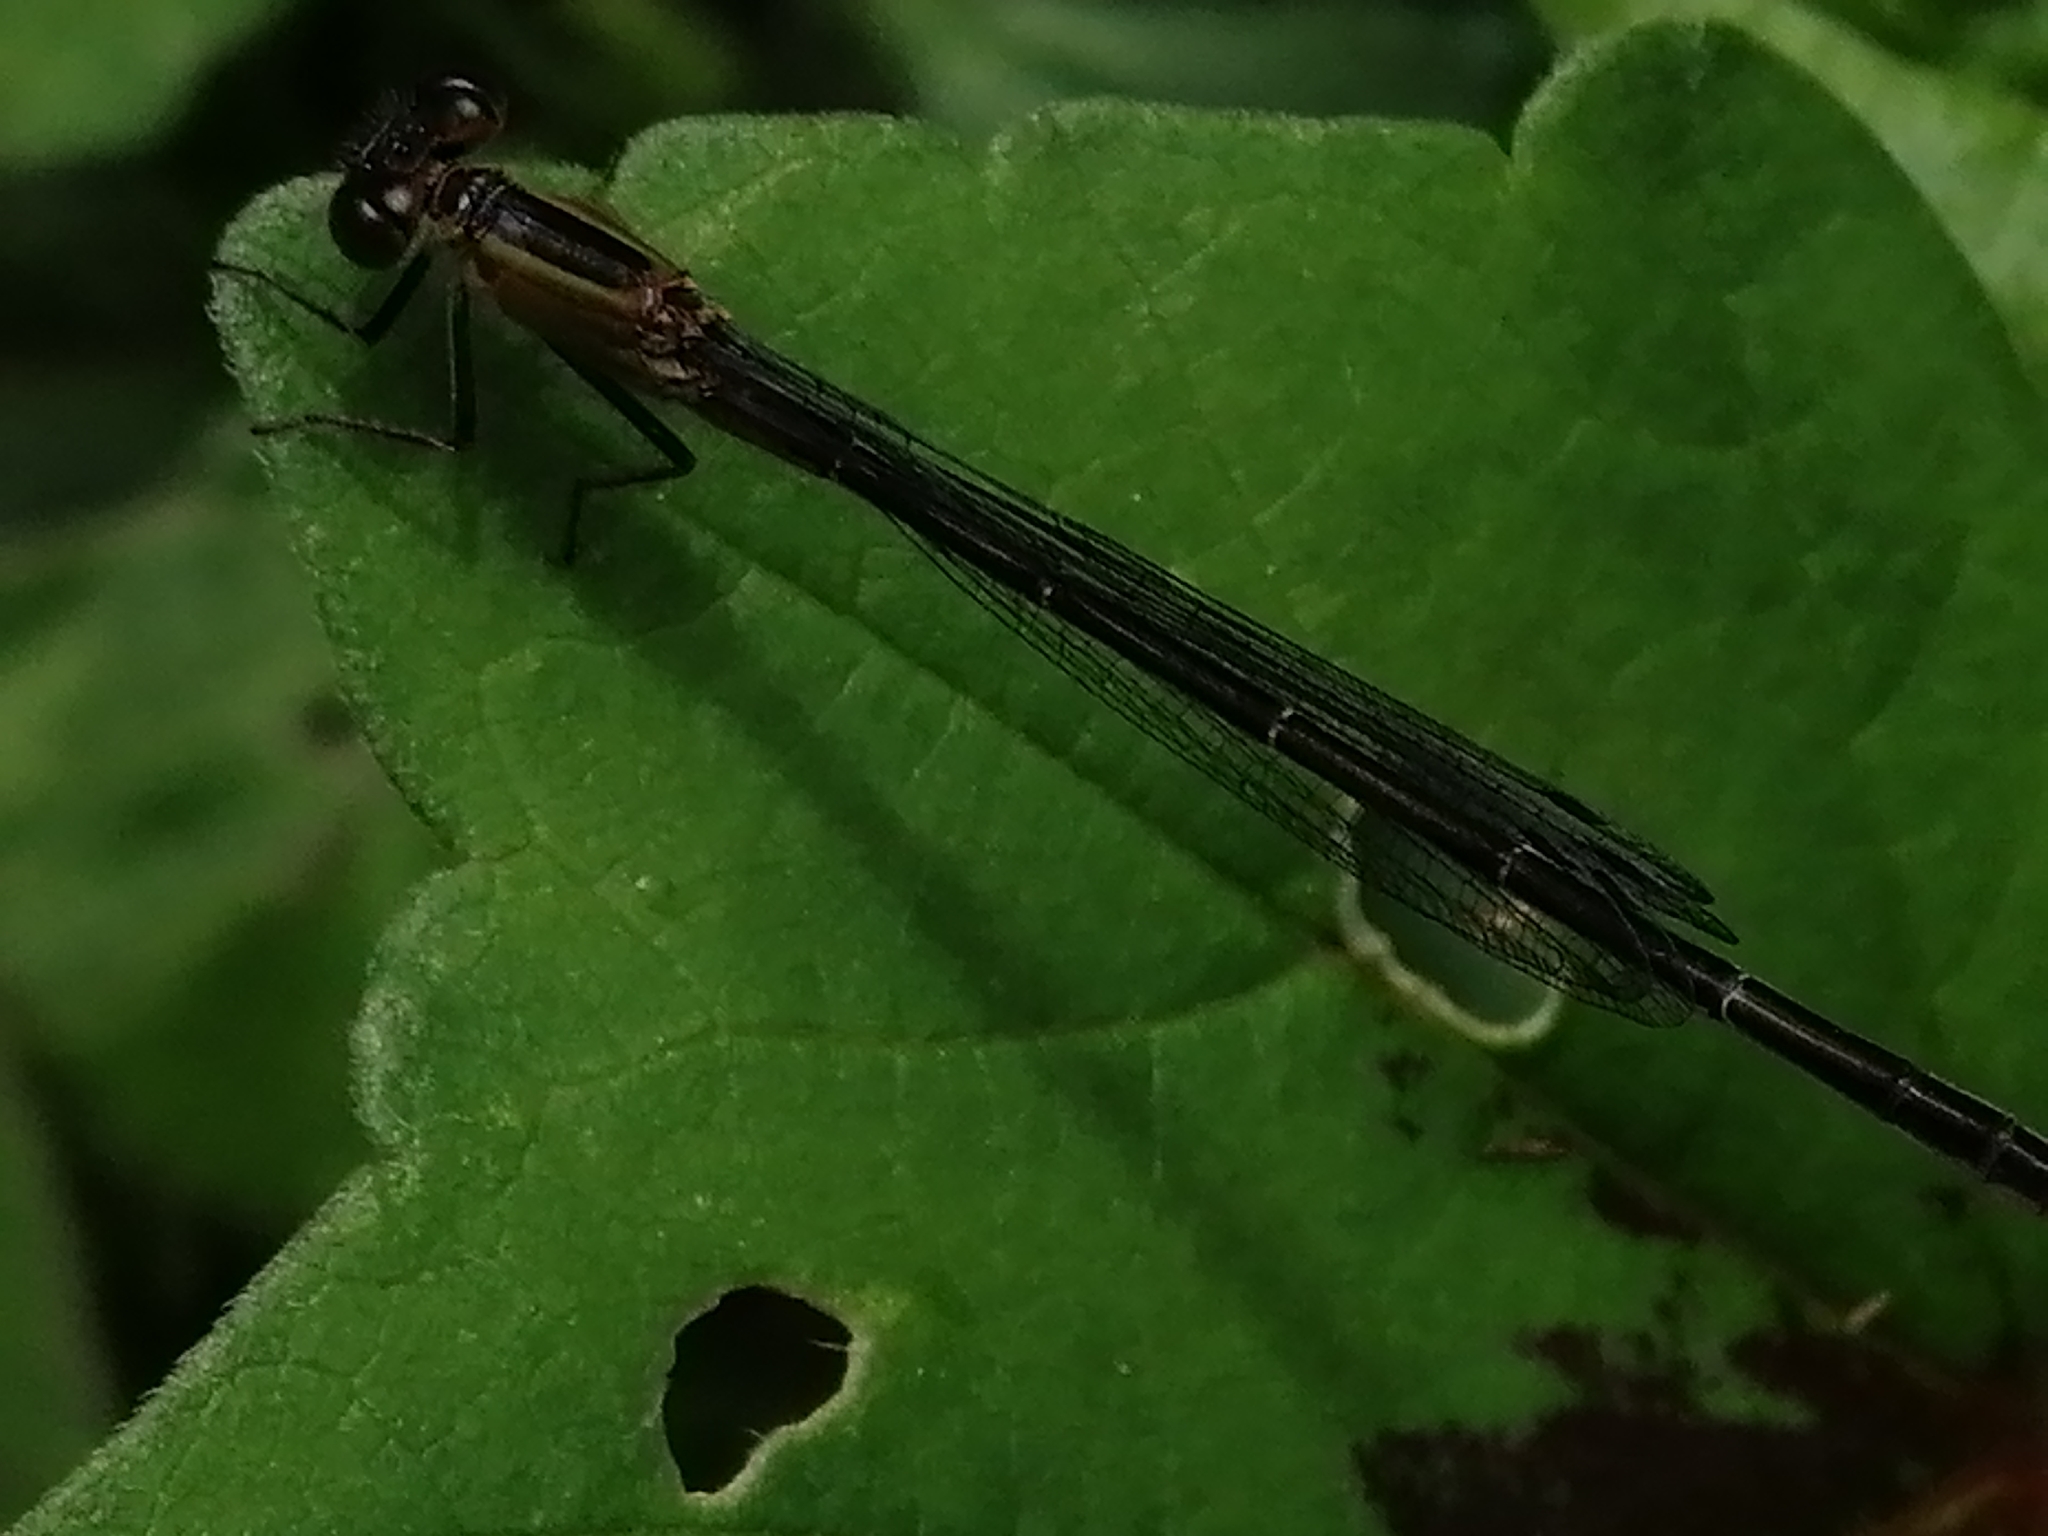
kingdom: Animalia
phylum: Arthropoda
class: Insecta
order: Odonata
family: Coenagrionidae
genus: Ischnura
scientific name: Ischnura ramburii
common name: Rambur's forktail
